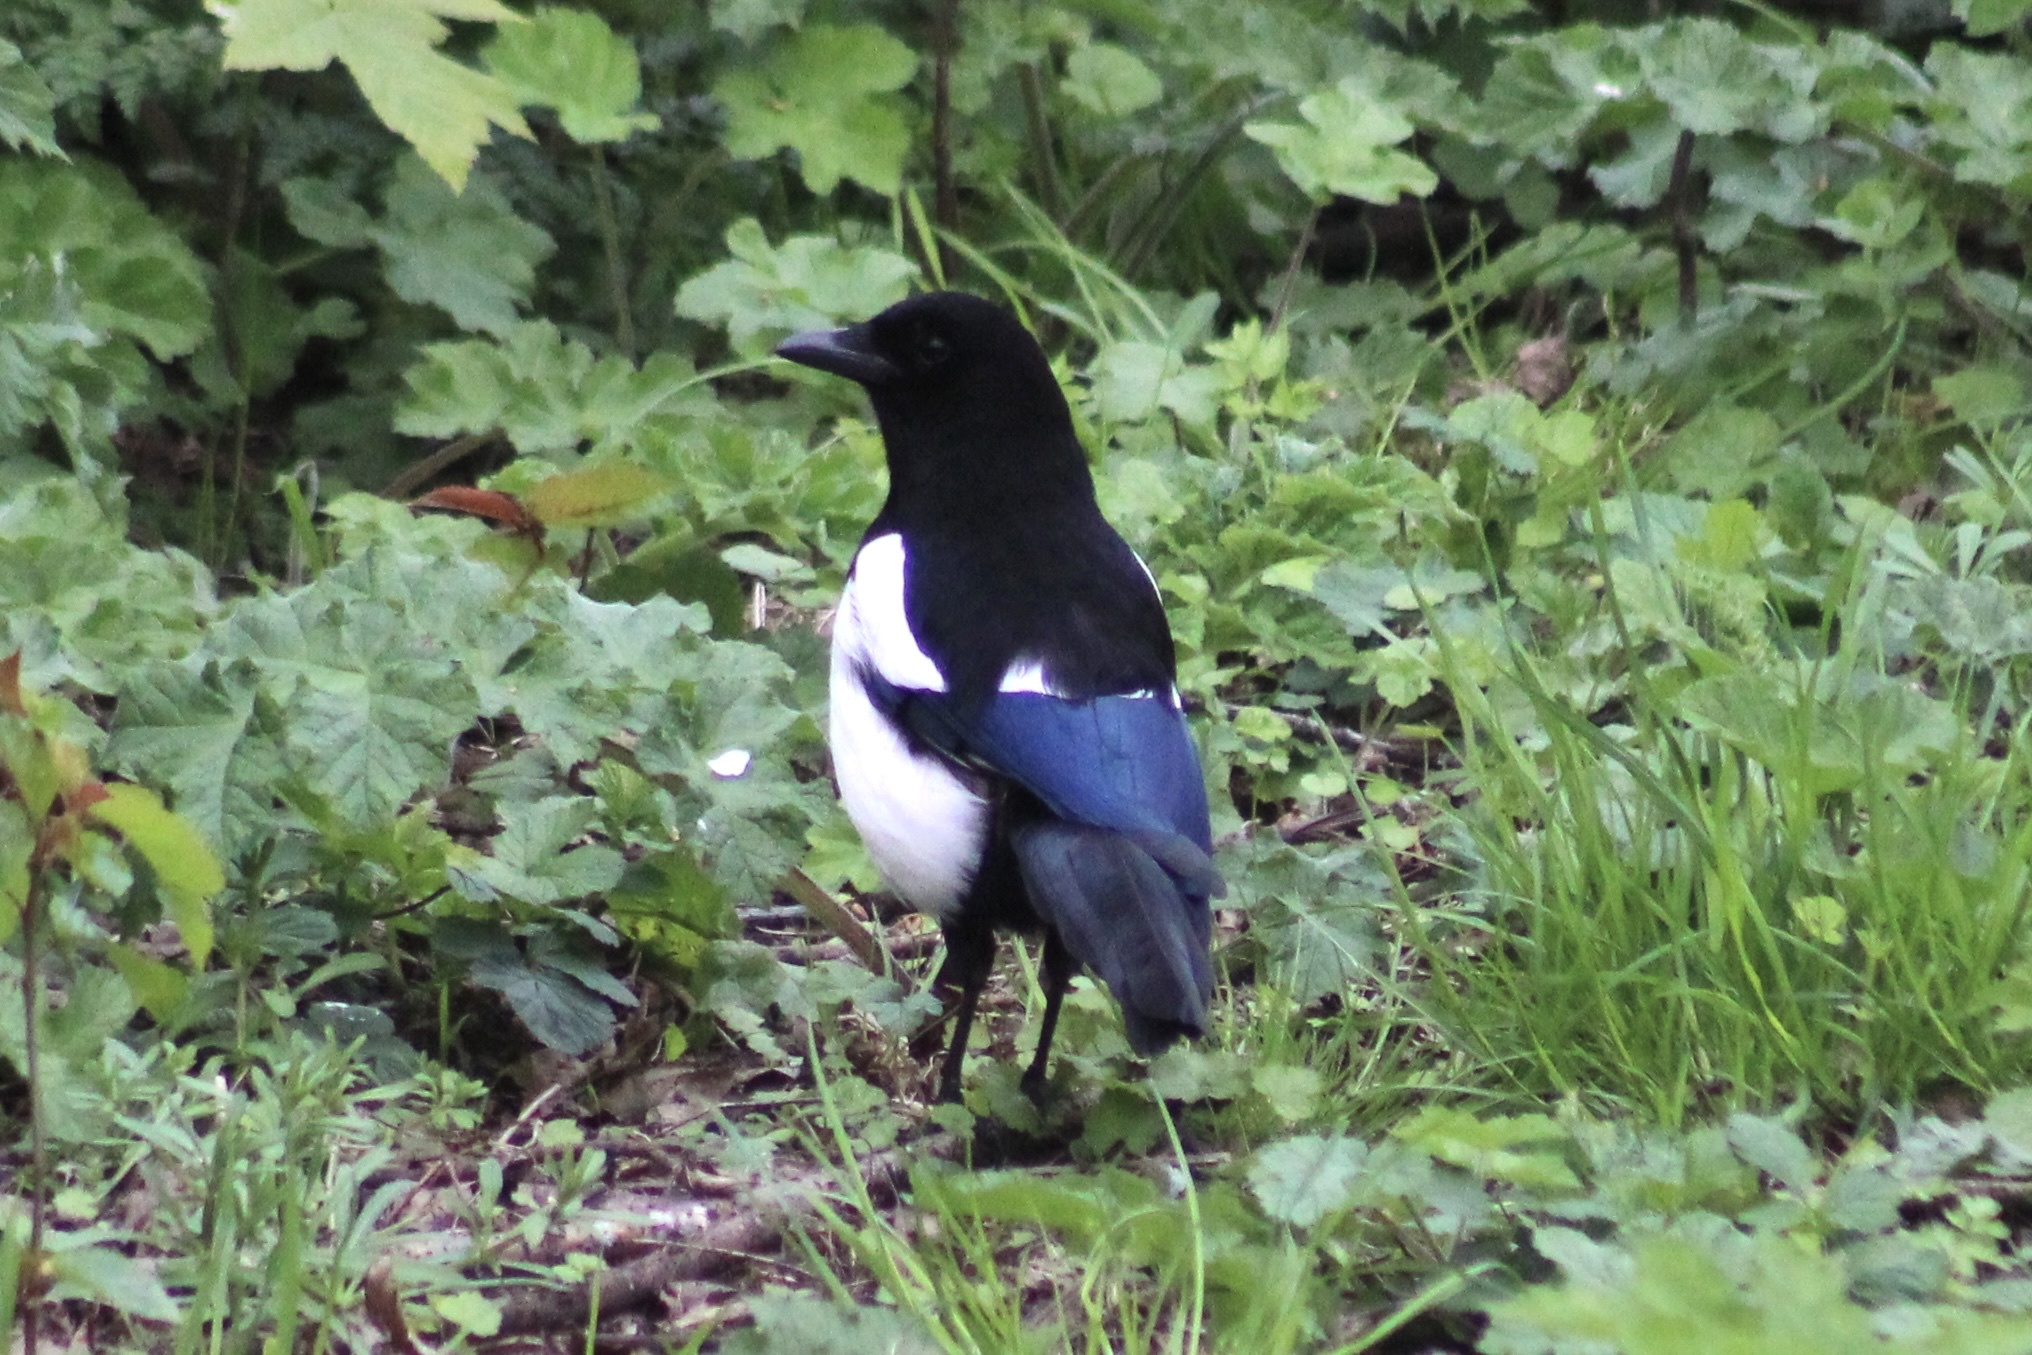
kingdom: Animalia
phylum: Chordata
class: Aves
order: Passeriformes
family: Corvidae
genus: Pica
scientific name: Pica pica
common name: Eurasian magpie
